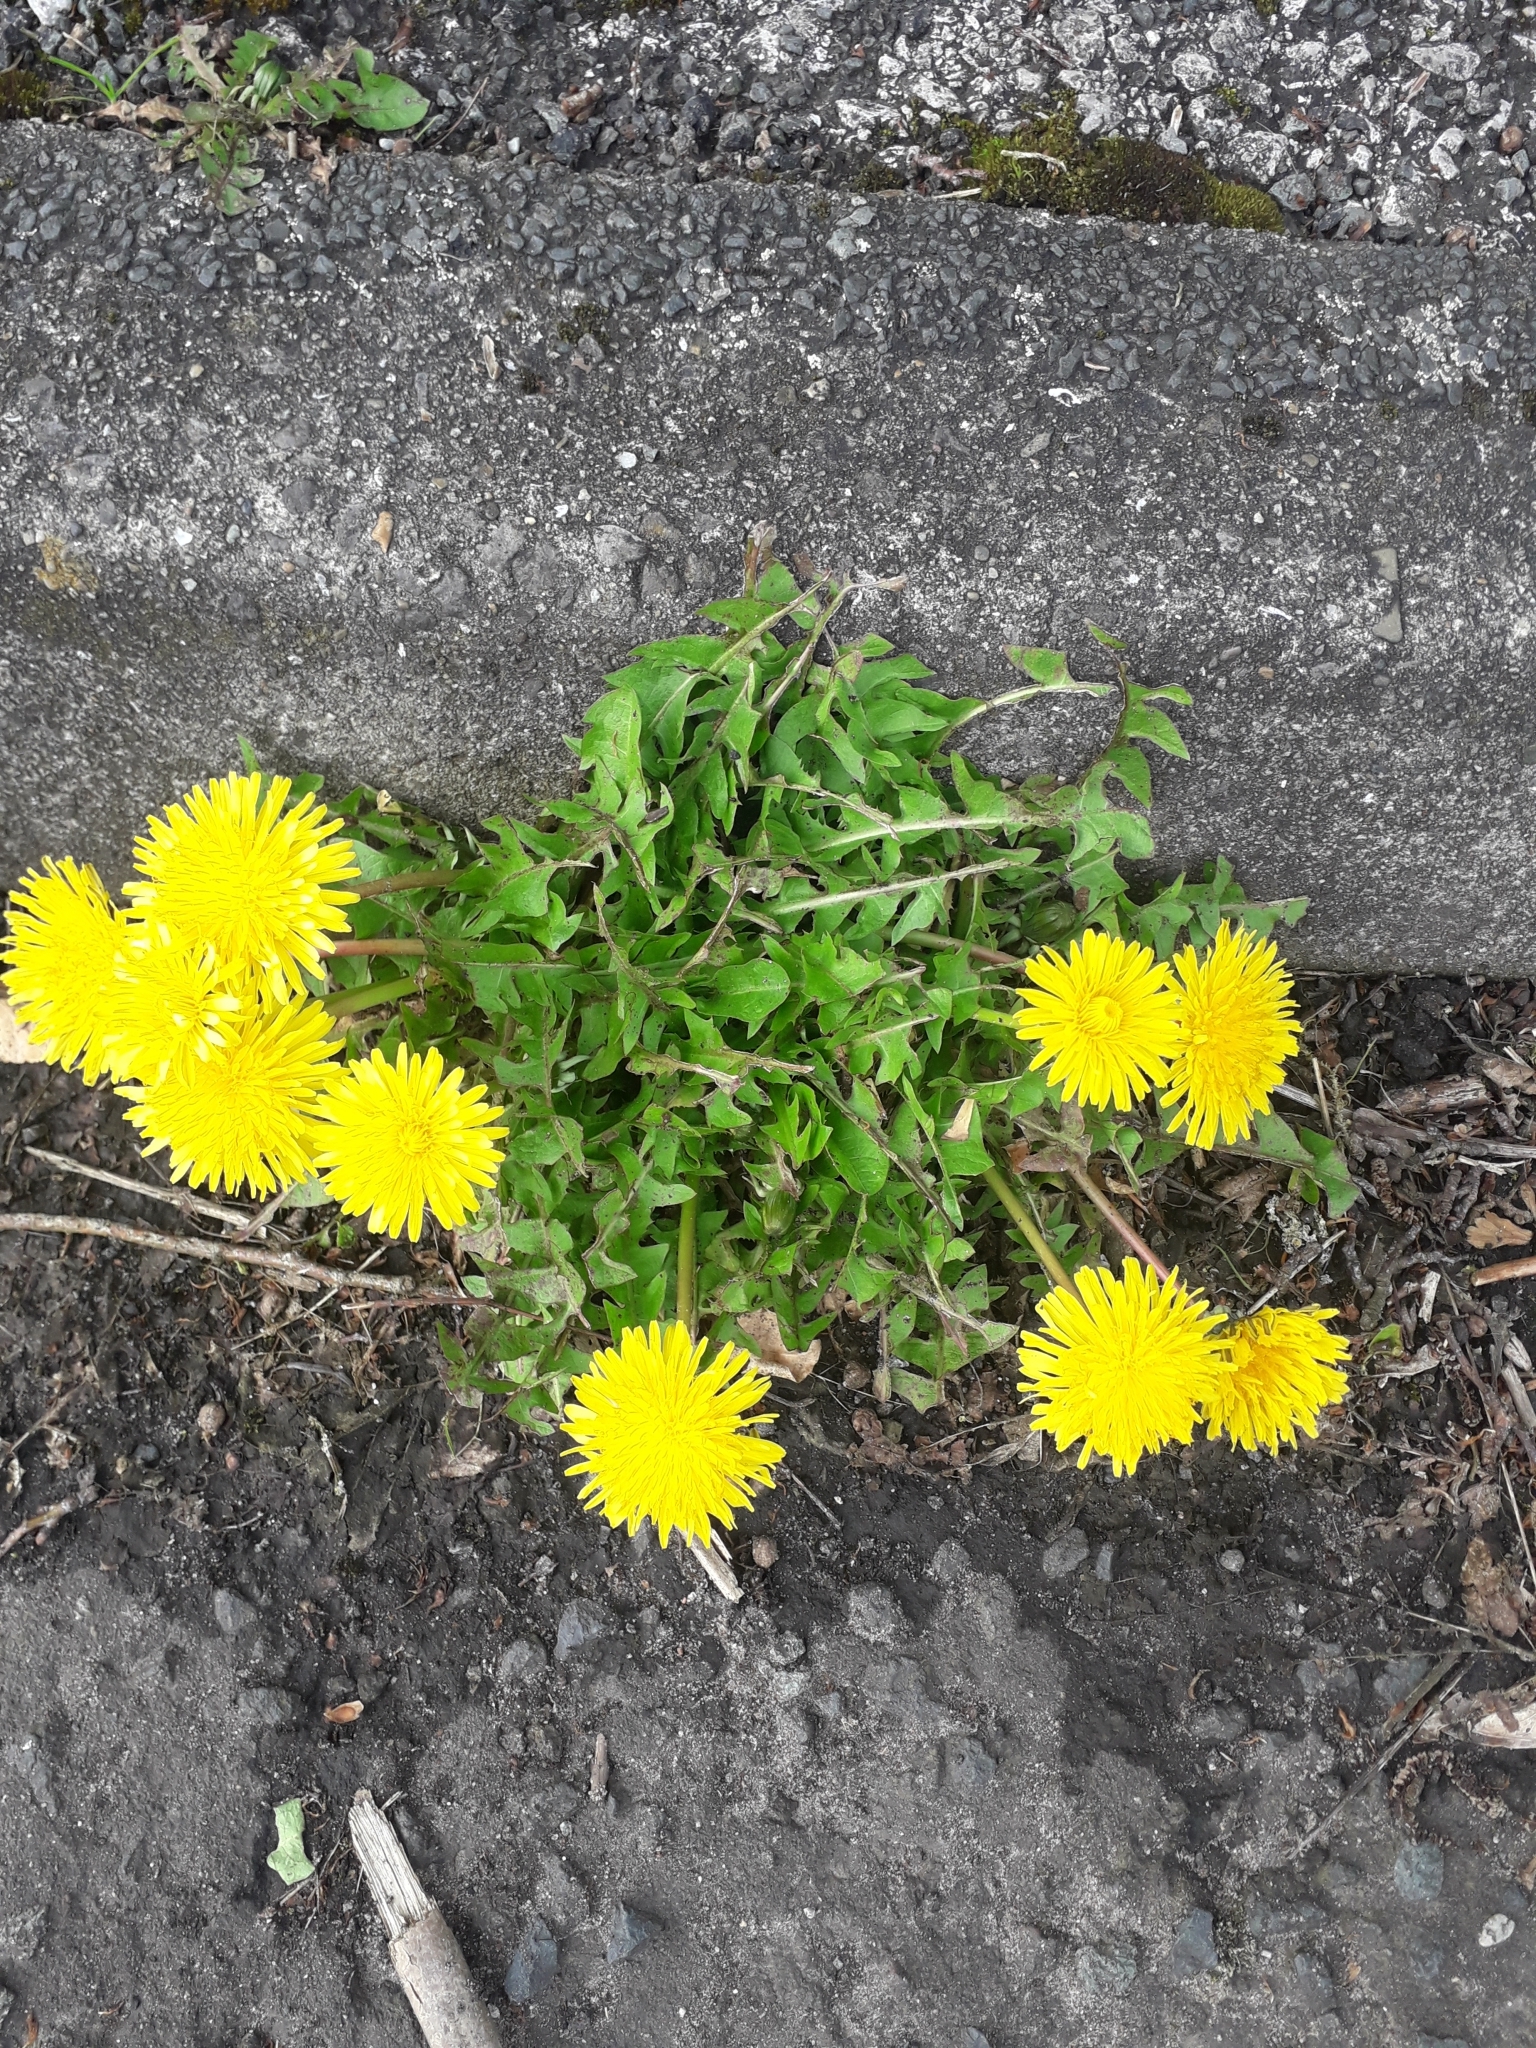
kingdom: Plantae
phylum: Tracheophyta
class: Magnoliopsida
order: Asterales
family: Asteraceae
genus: Taraxacum
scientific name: Taraxacum officinale
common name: Common dandelion
